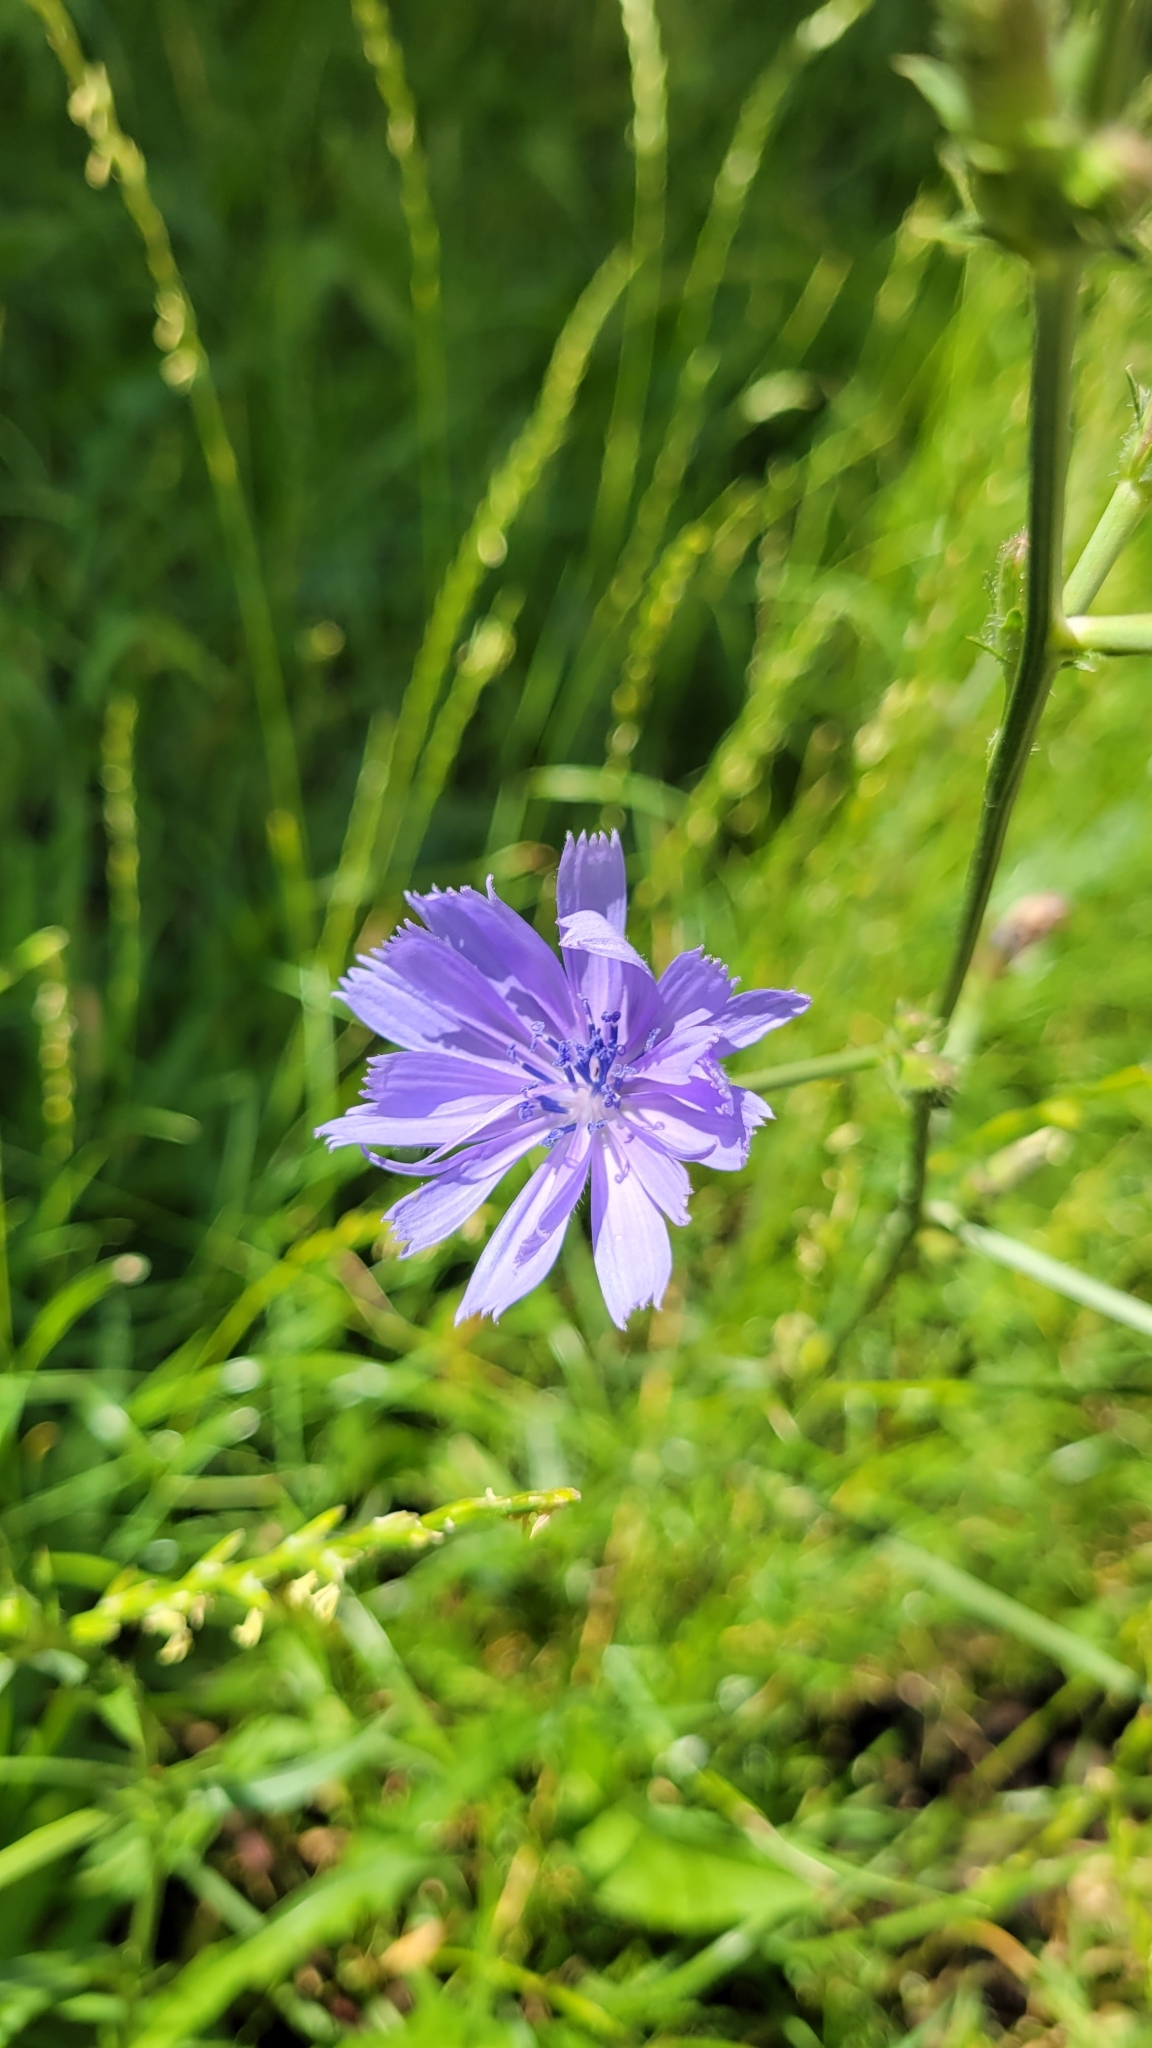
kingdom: Plantae
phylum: Tracheophyta
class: Magnoliopsida
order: Asterales
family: Asteraceae
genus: Cichorium
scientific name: Cichorium intybus
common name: Chicory
